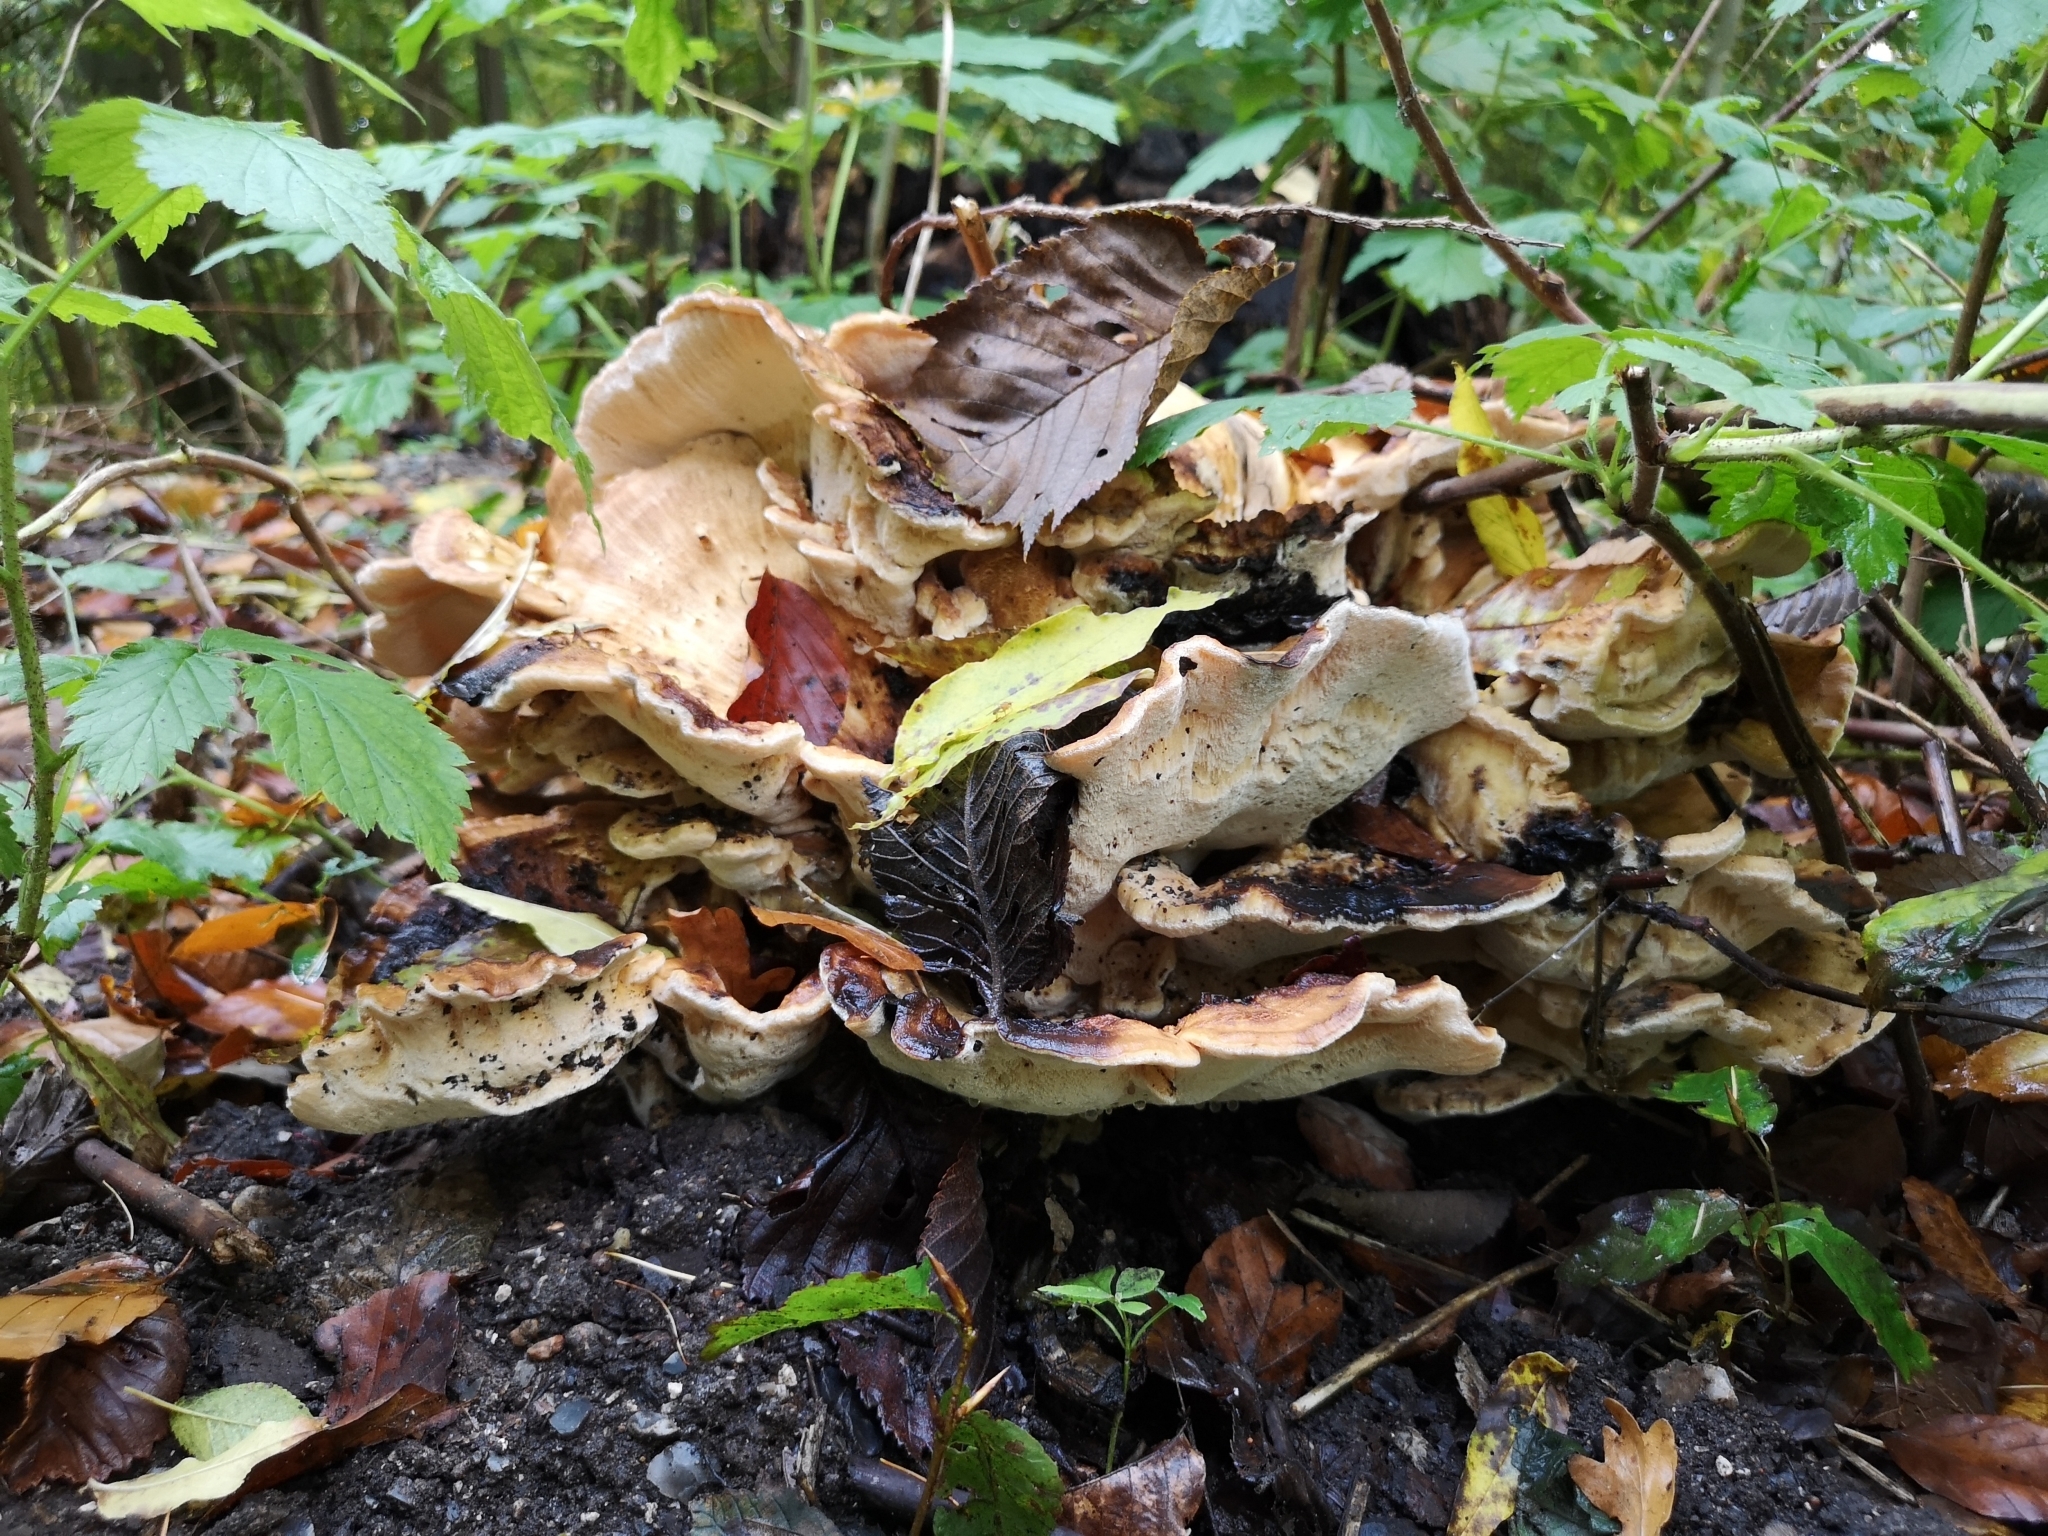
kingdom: Fungi
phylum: Basidiomycota
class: Agaricomycetes
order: Polyporales
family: Meripilaceae
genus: Meripilus
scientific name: Meripilus giganteus
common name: Giant polypore
